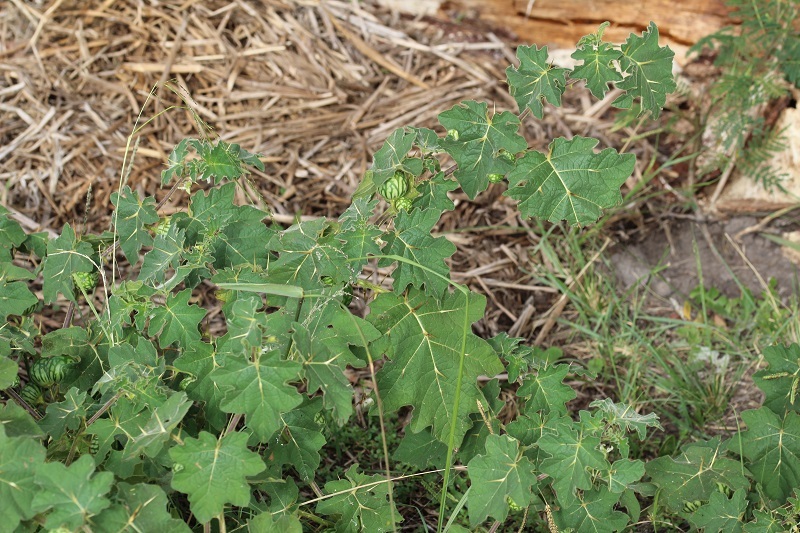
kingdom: Plantae
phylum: Tracheophyta
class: Magnoliopsida
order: Solanales
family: Solanaceae
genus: Solanum
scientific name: Solanum viarum
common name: Tropical soda apple
